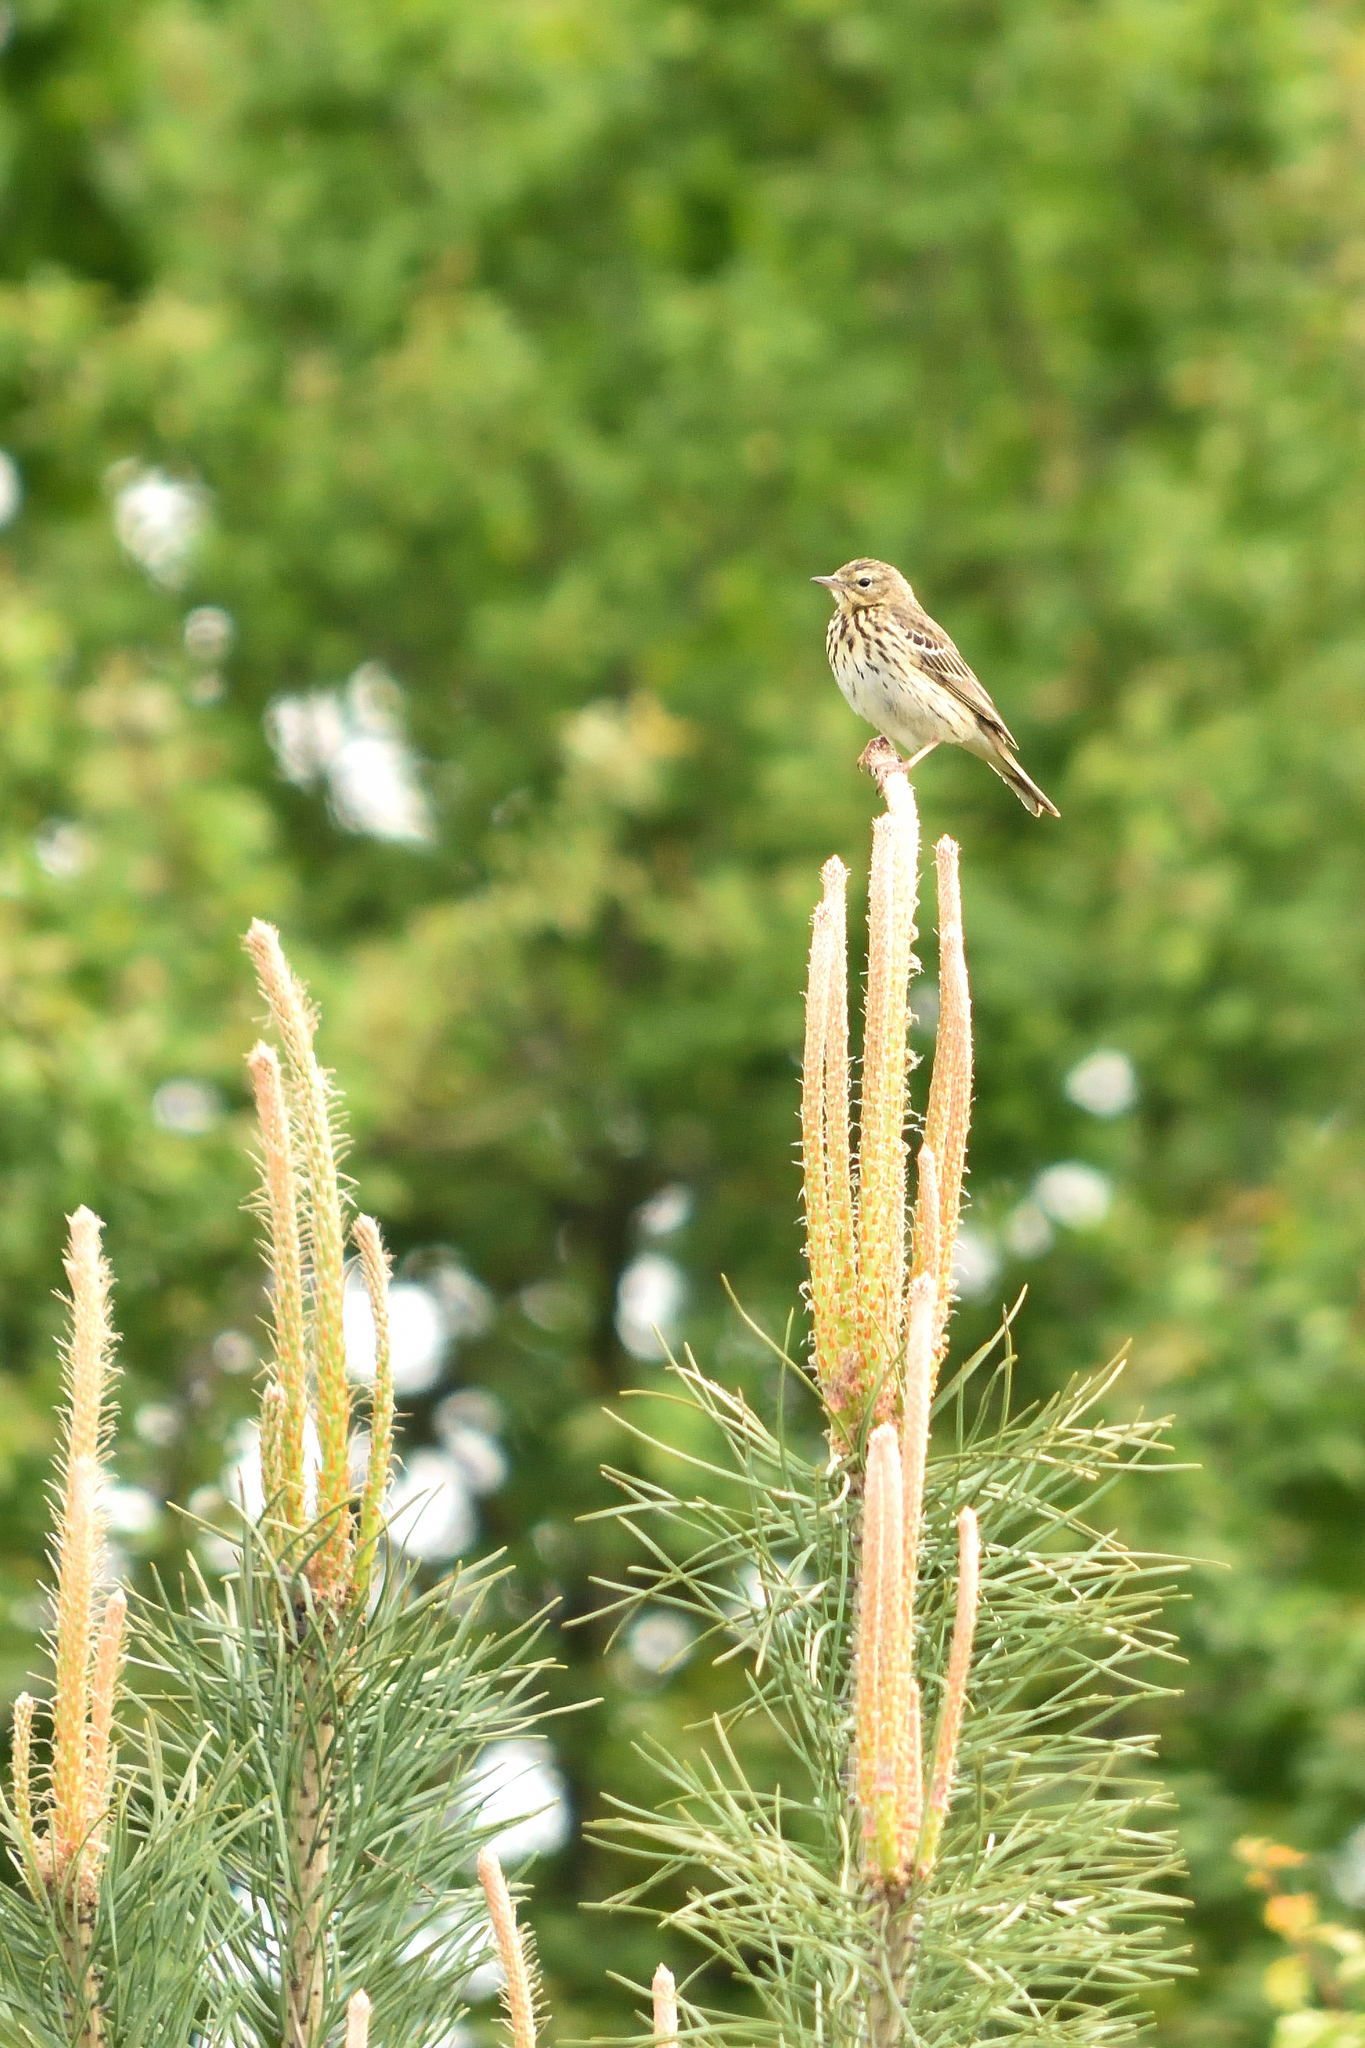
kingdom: Animalia
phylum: Chordata
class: Aves
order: Passeriformes
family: Motacillidae
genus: Anthus
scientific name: Anthus trivialis
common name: Tree pipit
